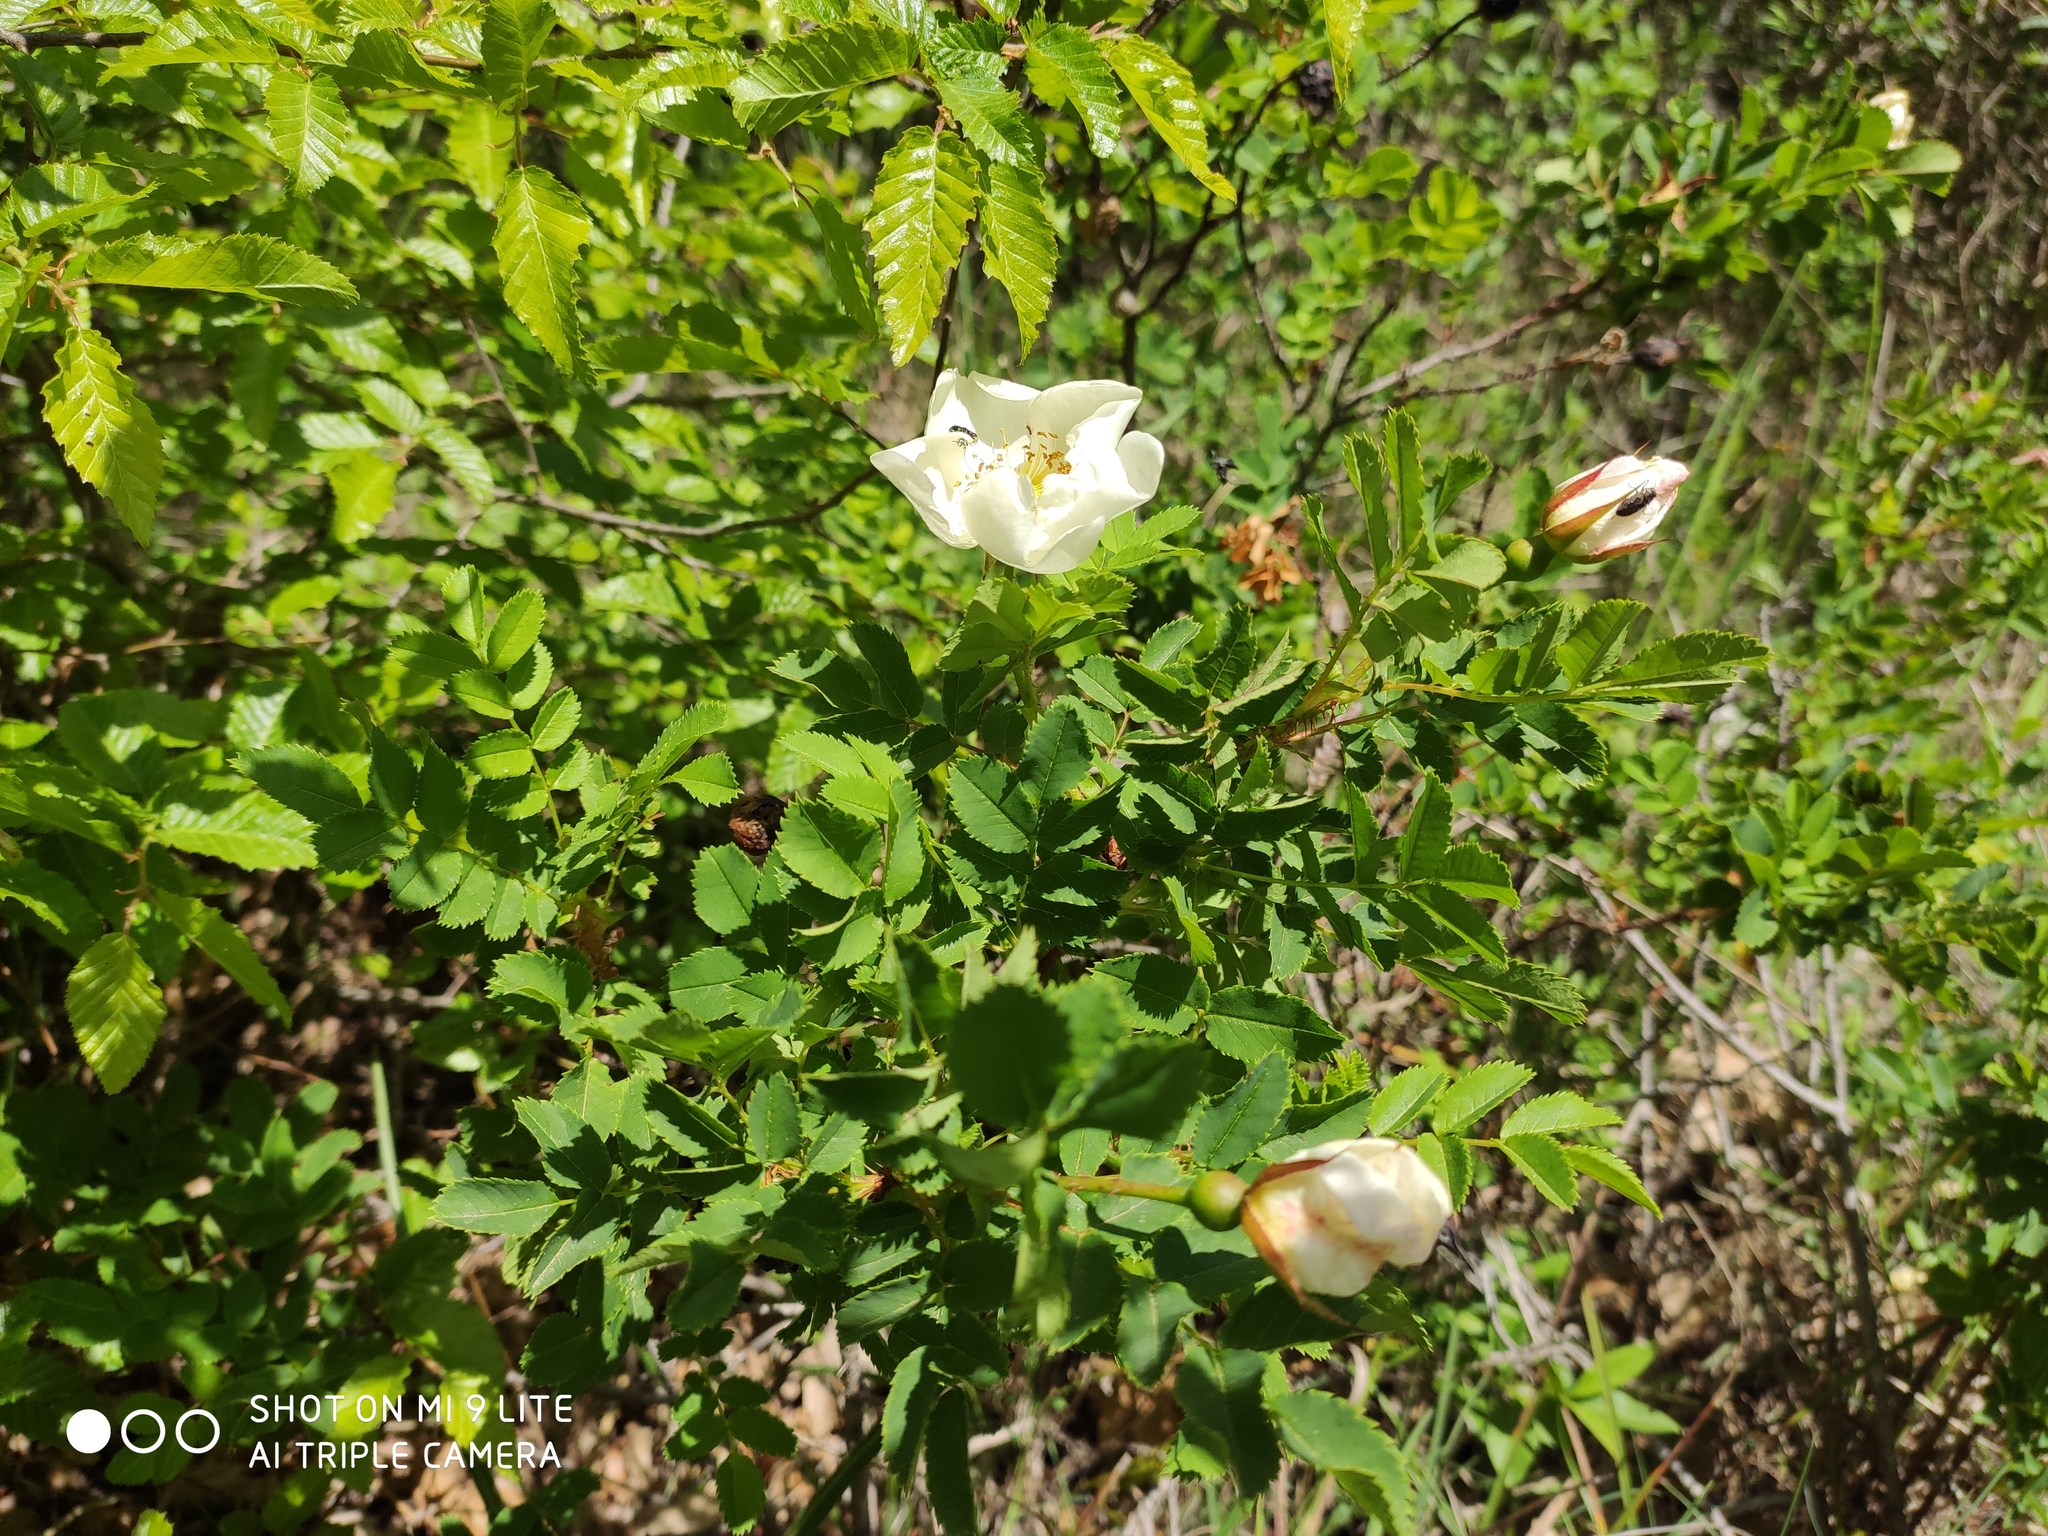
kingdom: Plantae
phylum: Tracheophyta
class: Magnoliopsida
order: Dipsacales
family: Caprifoliaceae
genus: Lonicera
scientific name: Lonicera caprifolium
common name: Perfoliate honeysuckle
